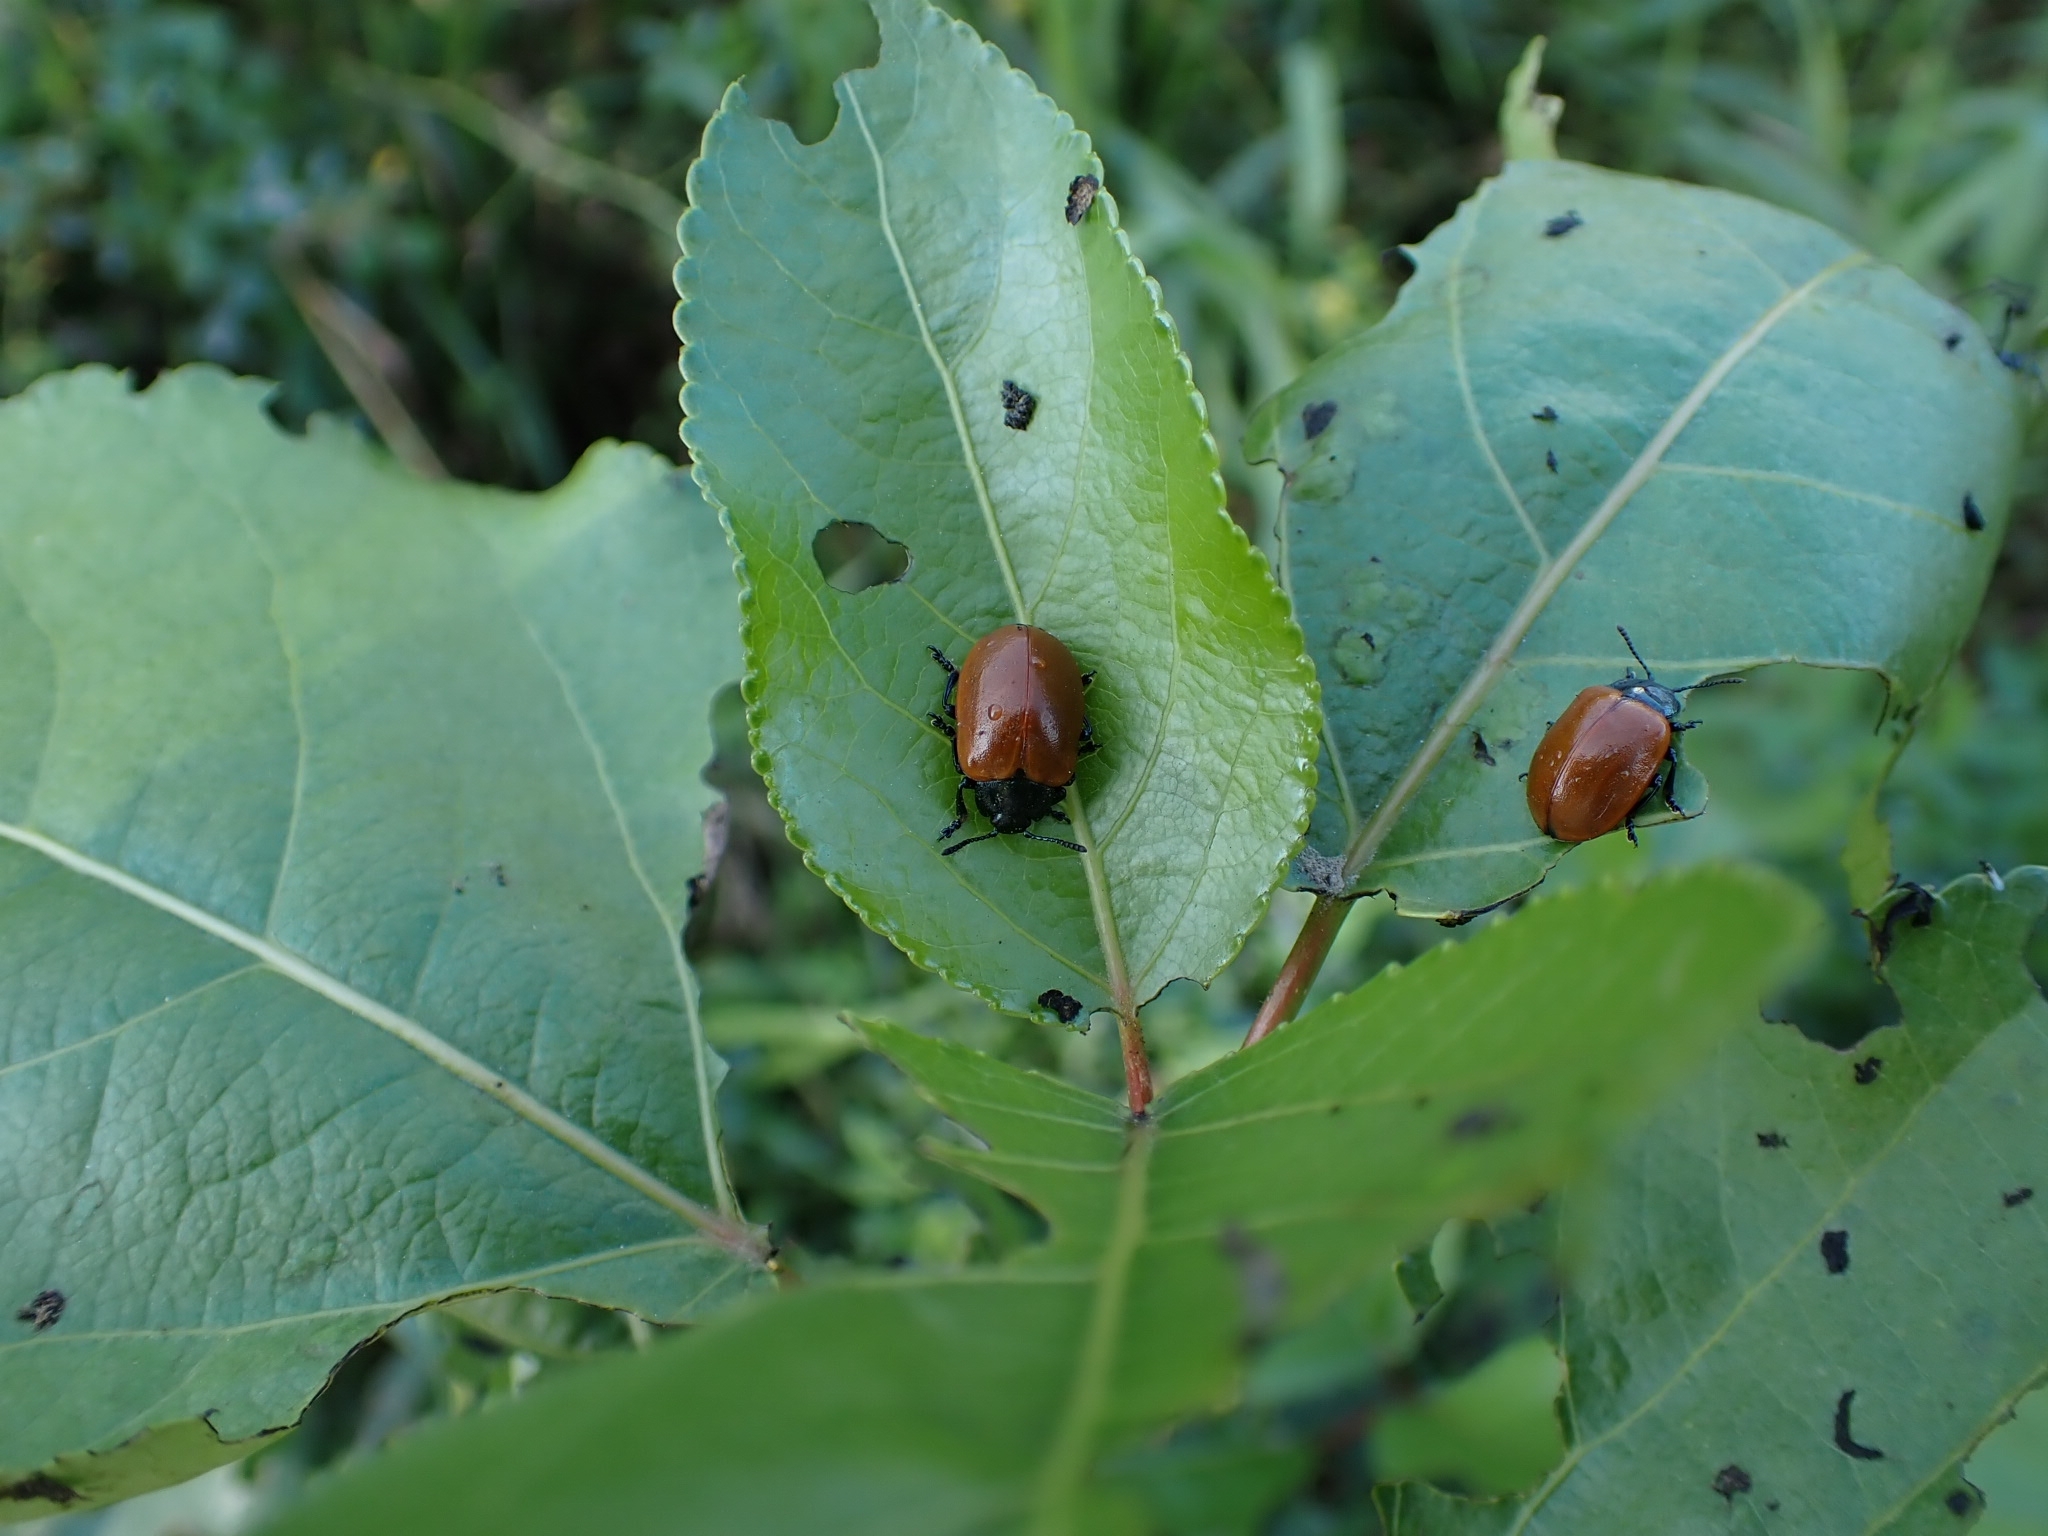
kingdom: Animalia
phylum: Arthropoda
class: Insecta
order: Coleoptera
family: Chrysomelidae
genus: Chrysomela
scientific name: Chrysomela populi
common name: Red poplar leaf beetle
